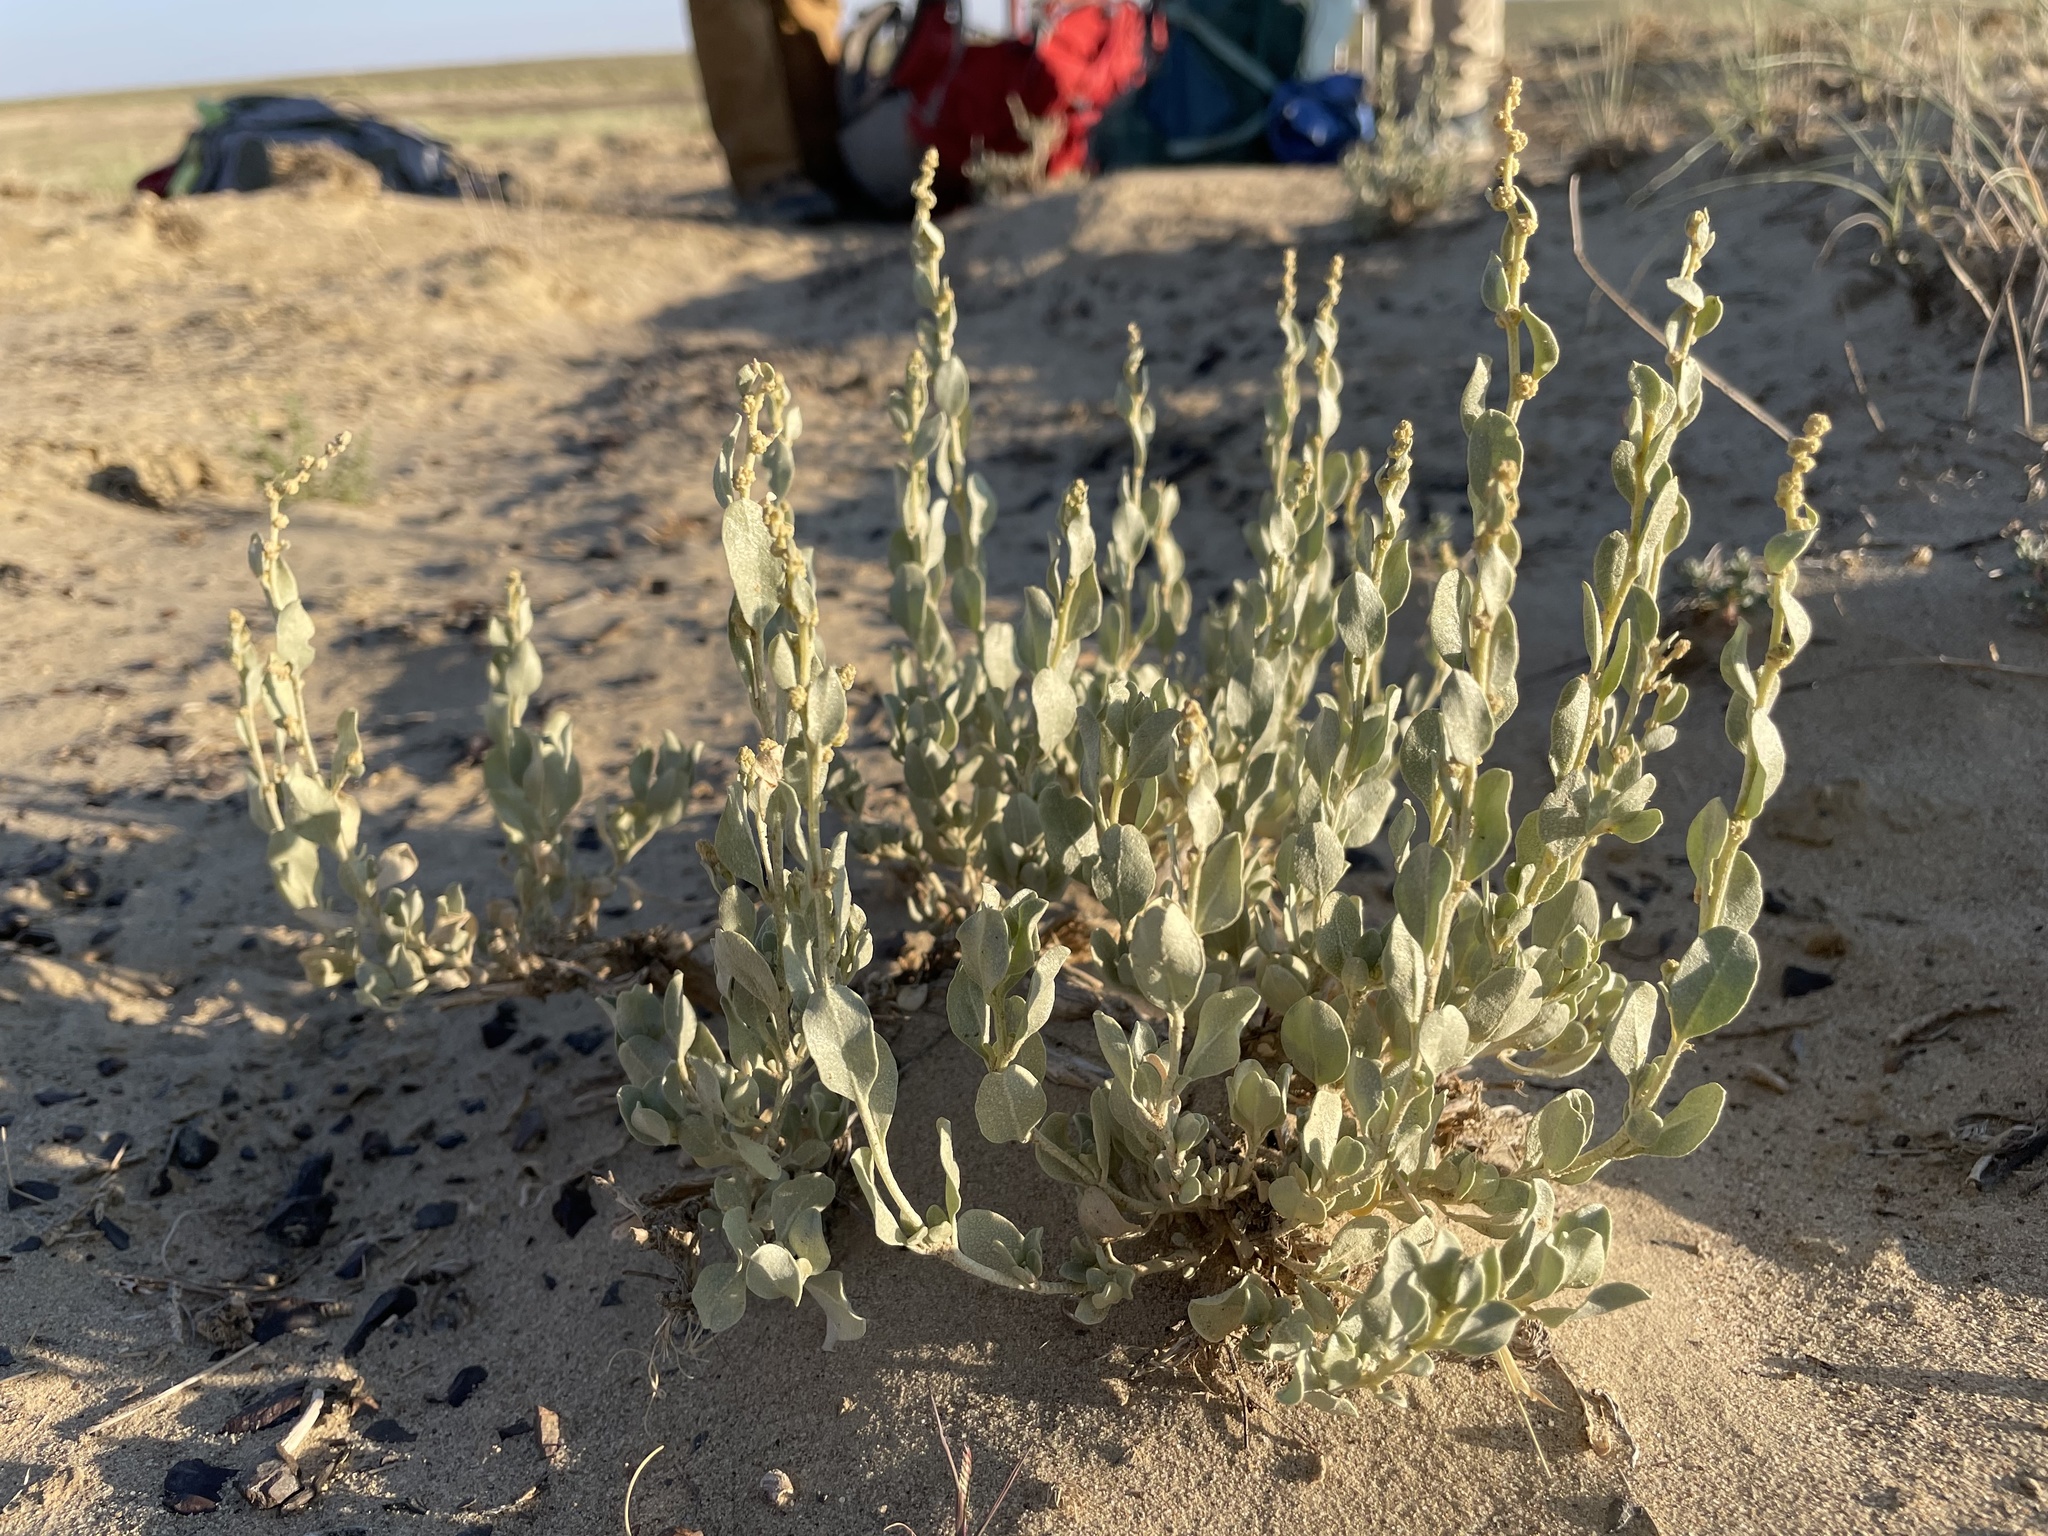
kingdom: Plantae
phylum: Tracheophyta
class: Magnoliopsida
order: Caryophyllales
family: Amaranthaceae
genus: Atriplex
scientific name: Atriplex obovata
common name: New mexico saltbush
